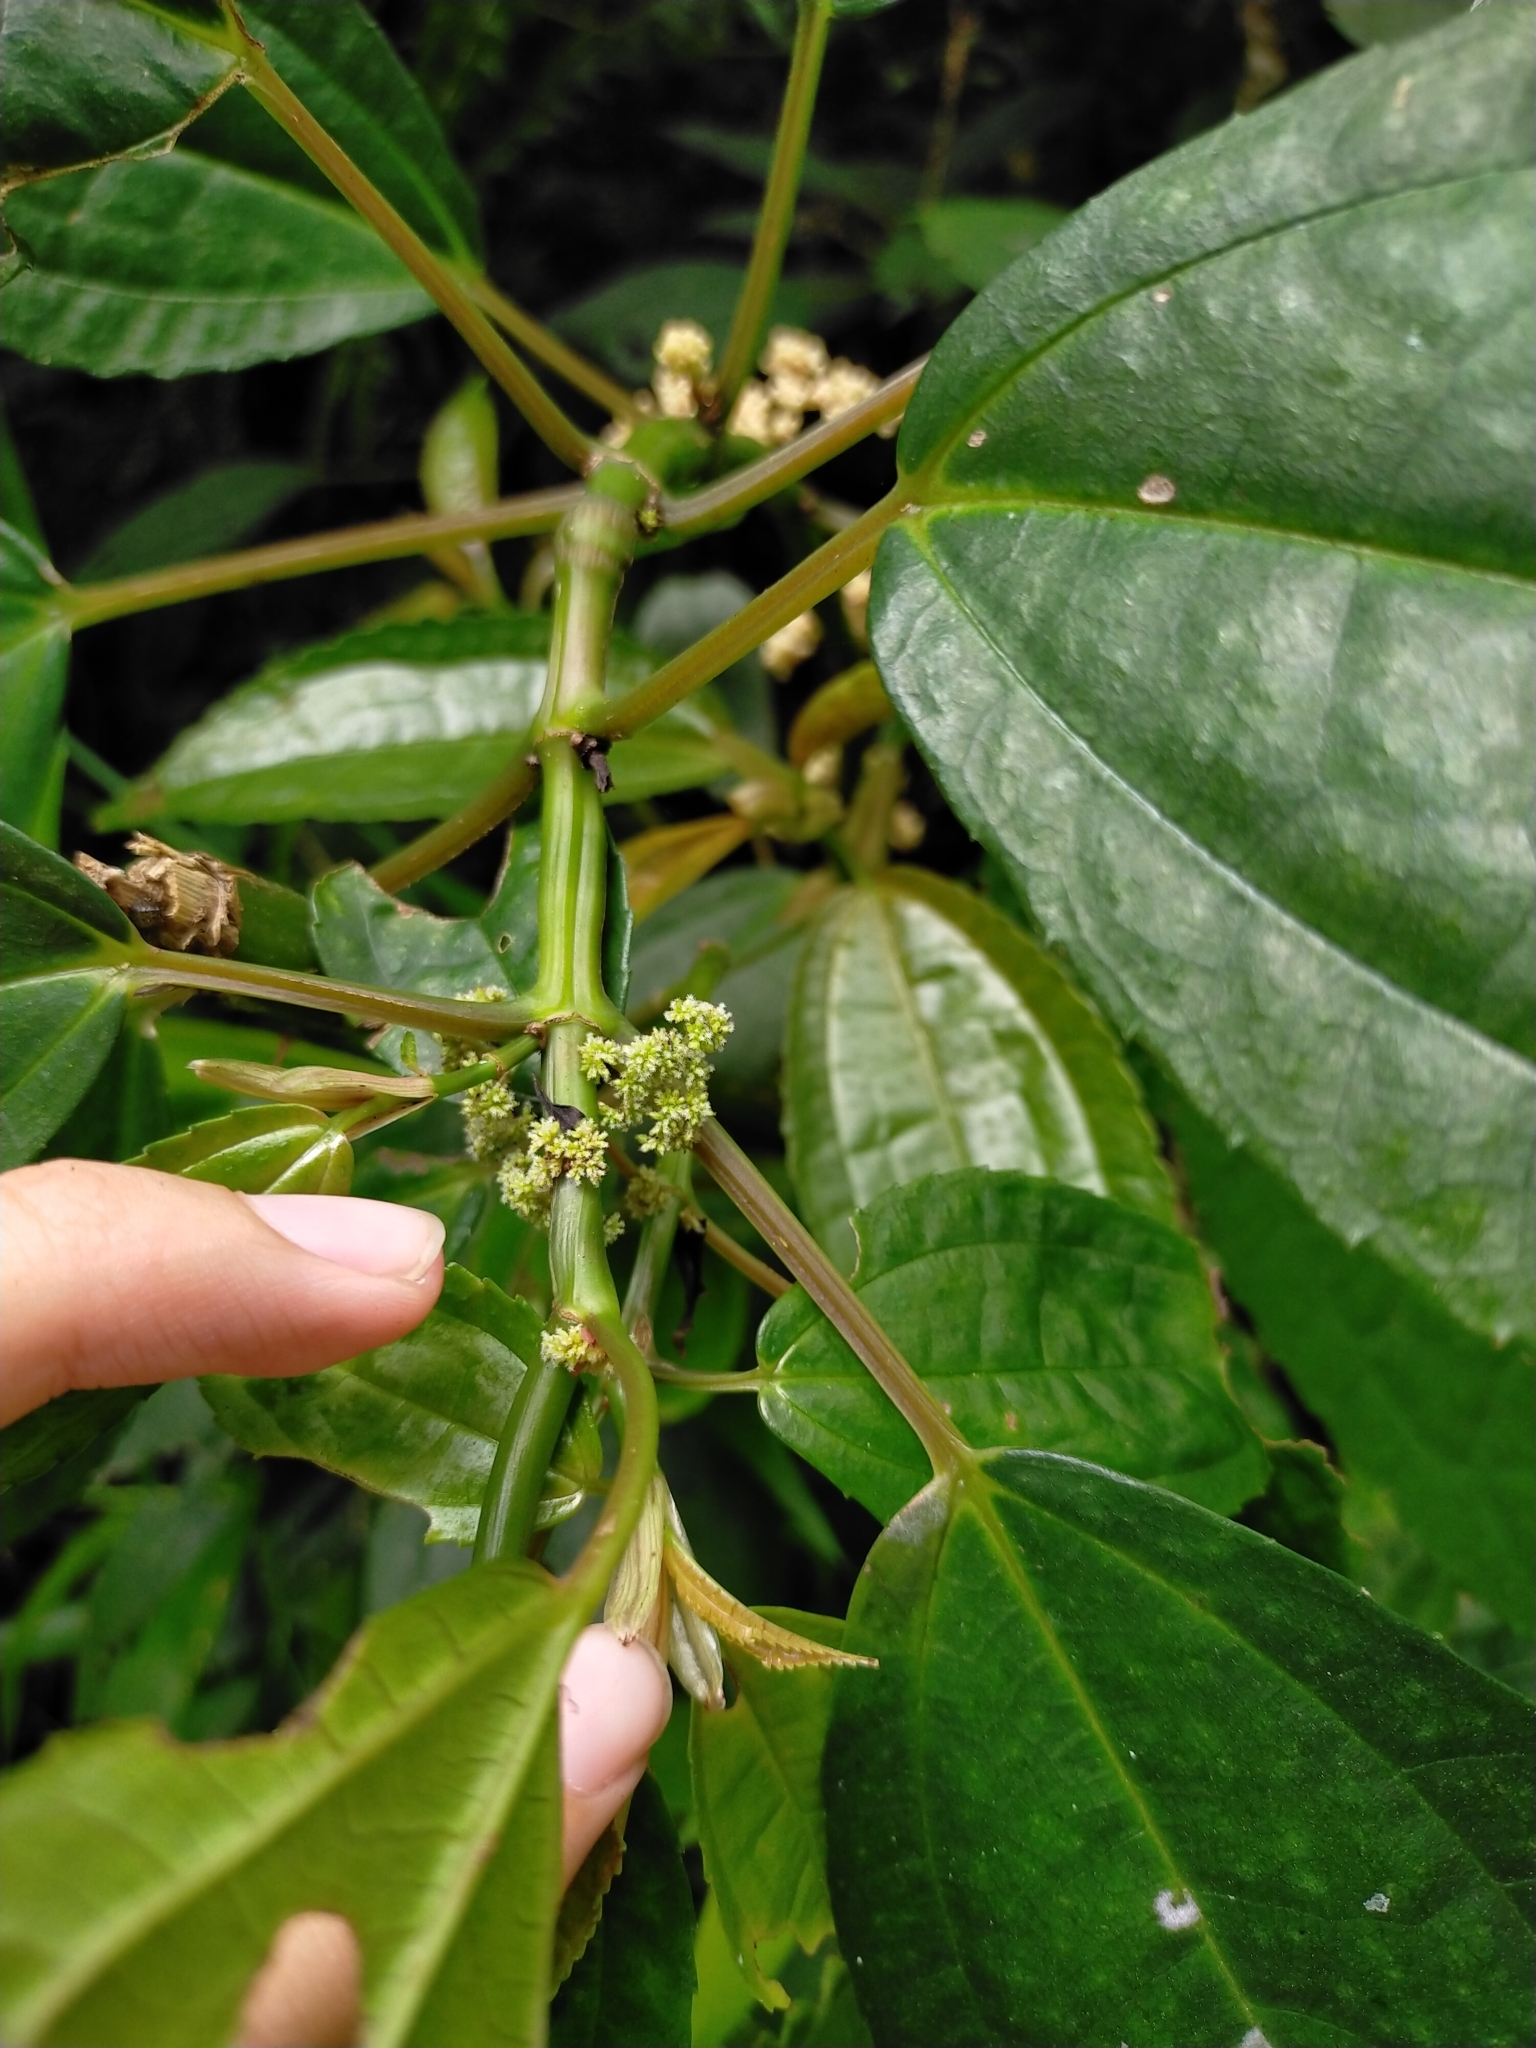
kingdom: Plantae
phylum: Tracheophyta
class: Magnoliopsida
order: Rosales
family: Urticaceae
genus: Pilea
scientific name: Pilea funkikensis
